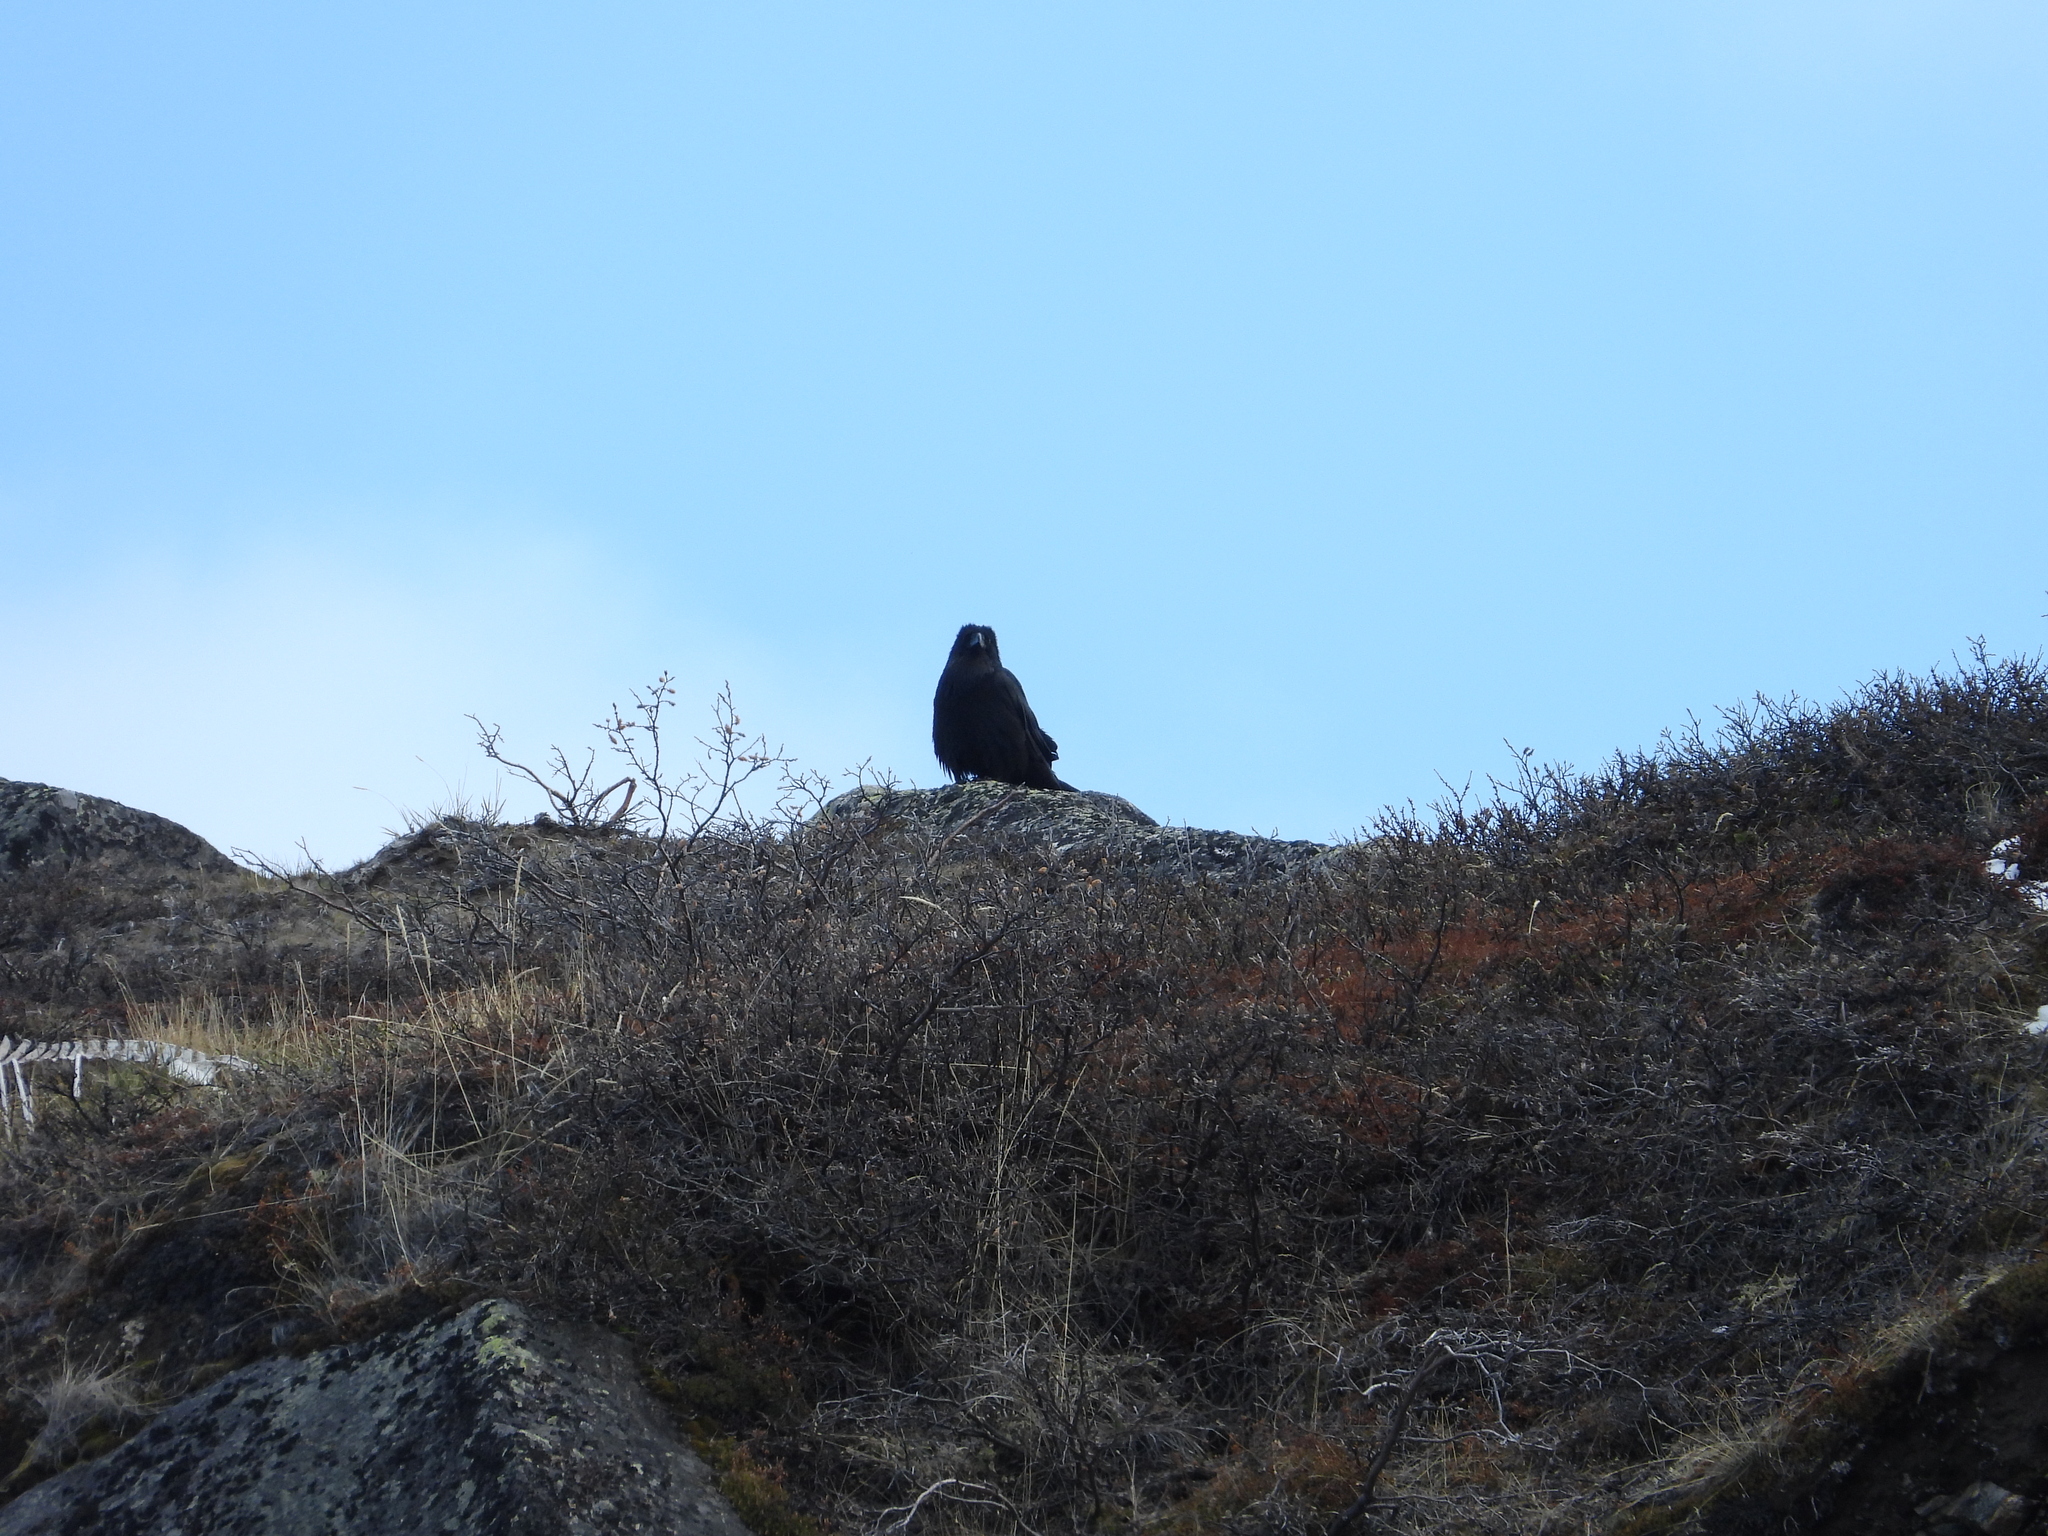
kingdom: Animalia
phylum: Chordata
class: Aves
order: Passeriformes
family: Corvidae
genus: Corvus
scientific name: Corvus corax
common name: Common raven
